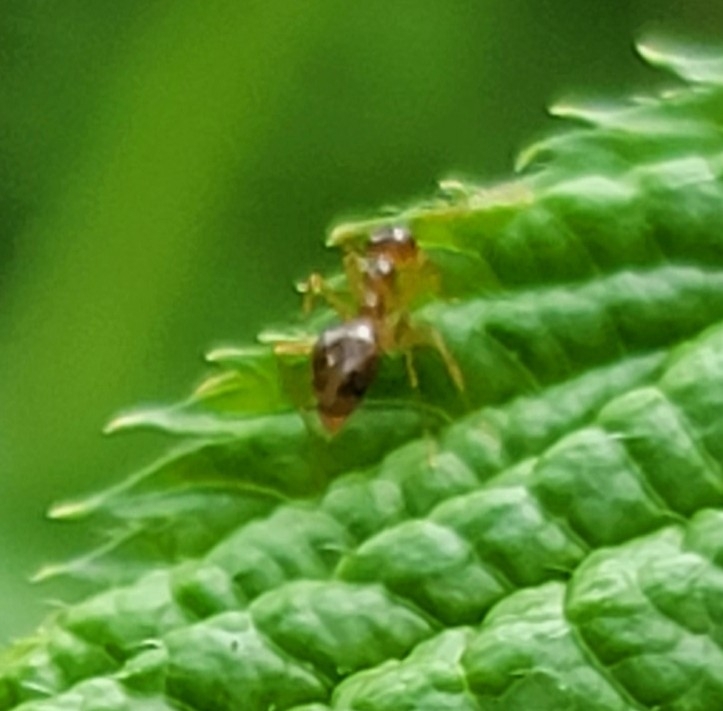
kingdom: Animalia
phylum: Arthropoda
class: Insecta
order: Hymenoptera
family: Formicidae
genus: Prenolepis
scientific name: Prenolepis imparis
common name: Small honey ant
